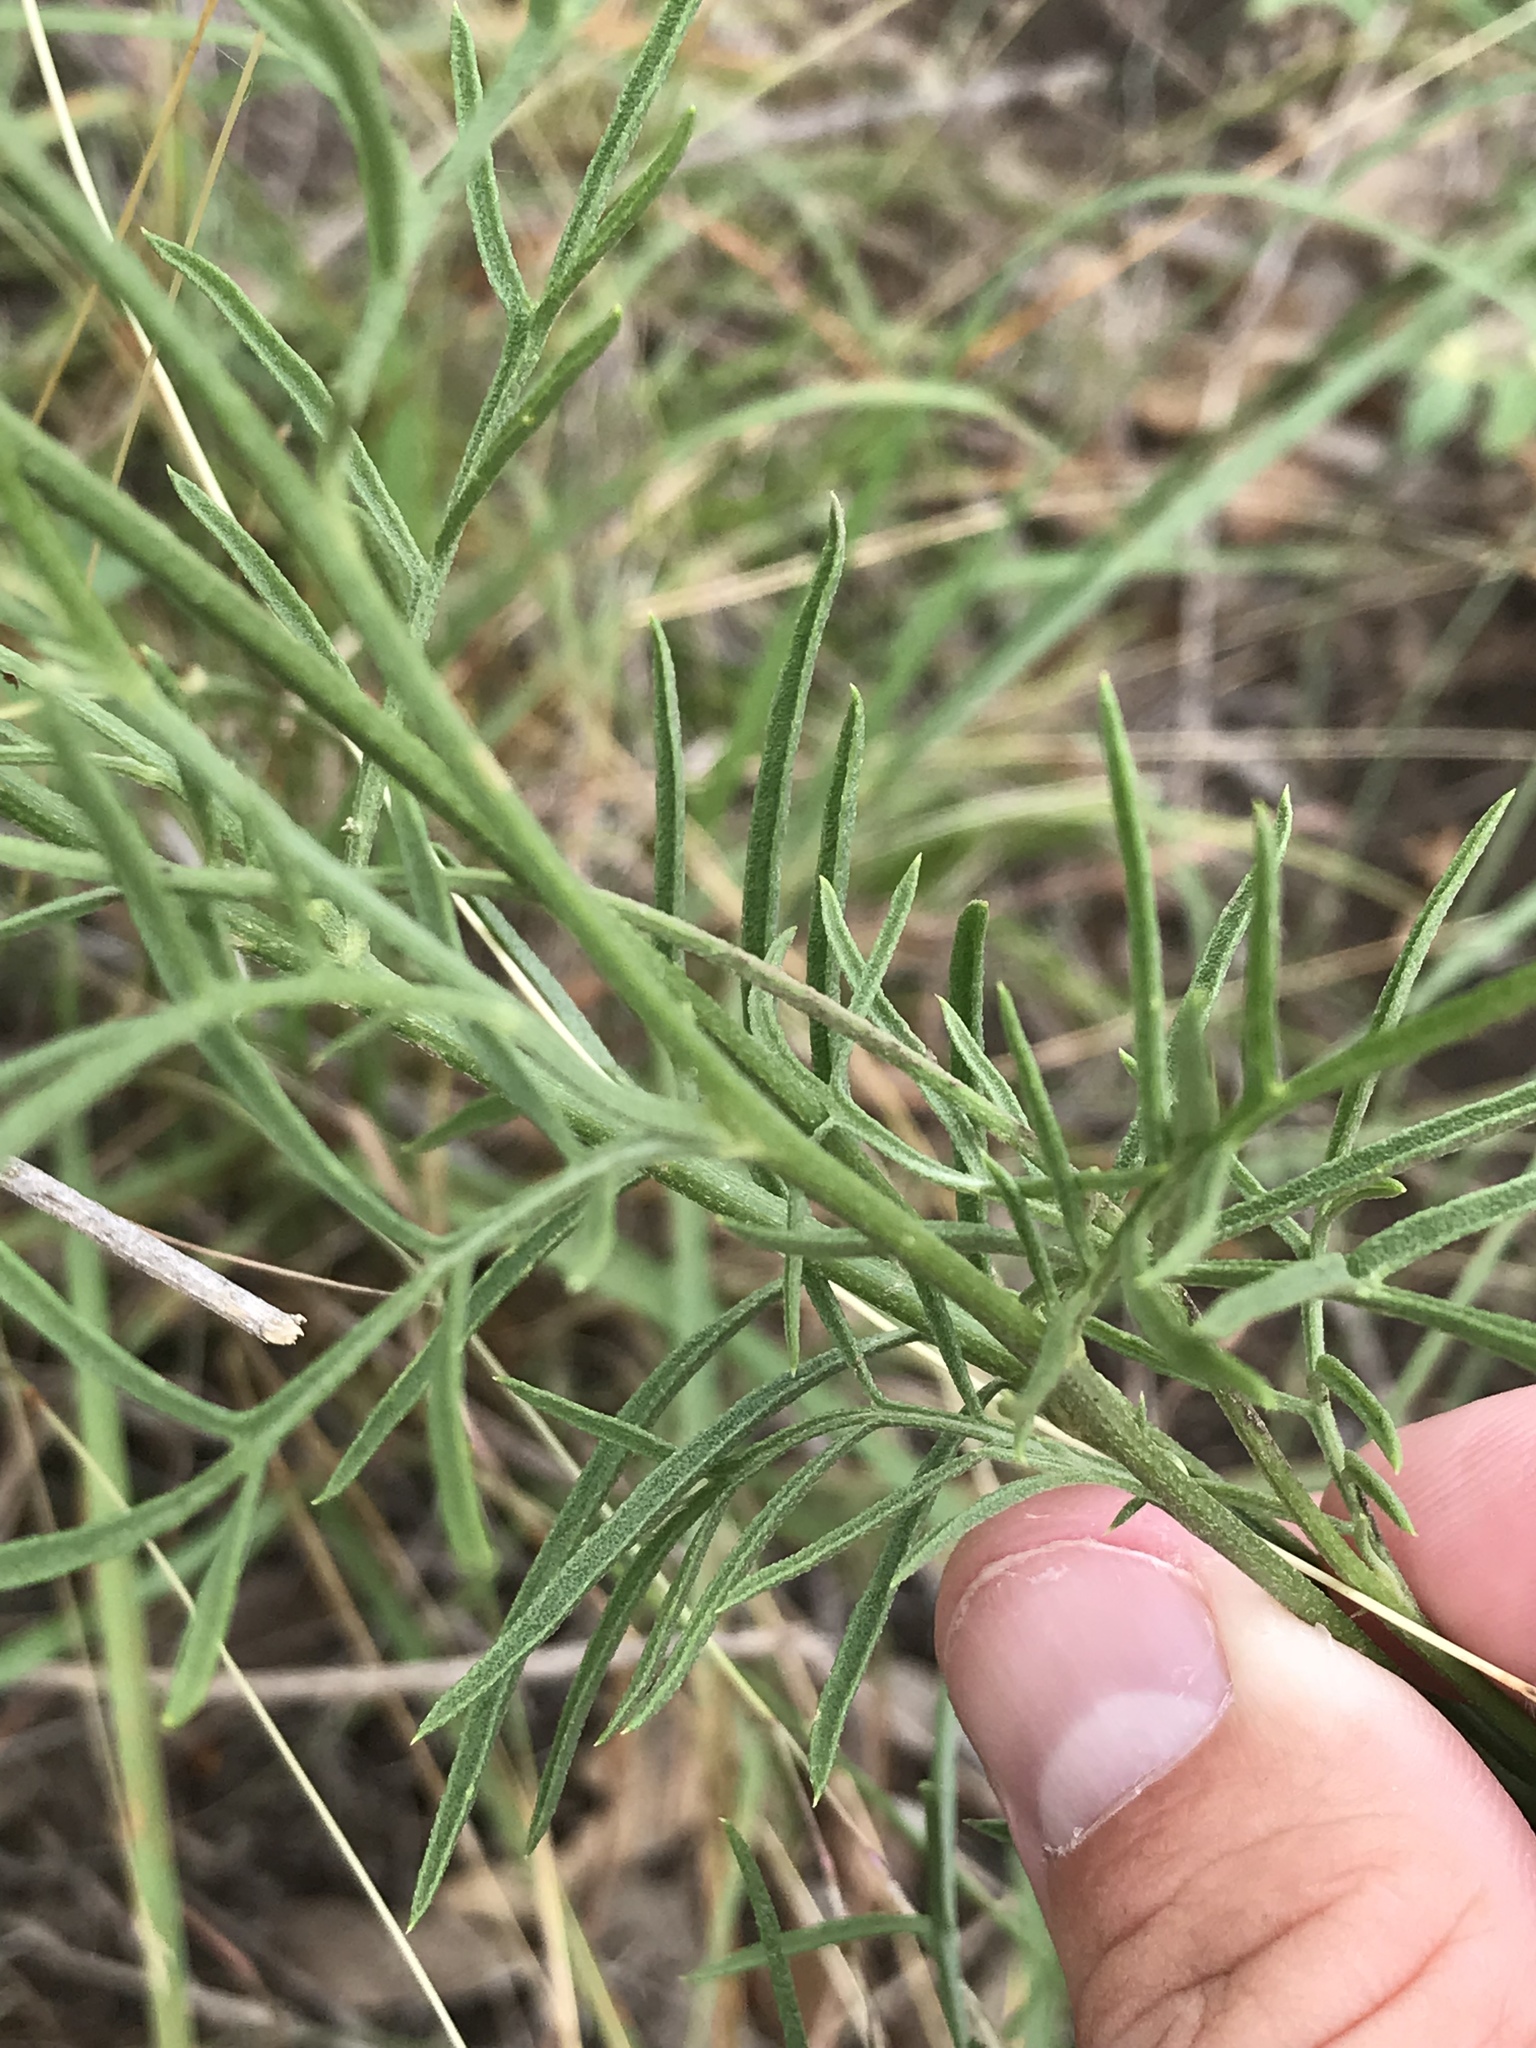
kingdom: Plantae
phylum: Tracheophyta
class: Magnoliopsida
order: Asterales
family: Asteraceae
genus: Ratibida
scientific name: Ratibida columnifera
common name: Prairie coneflower
